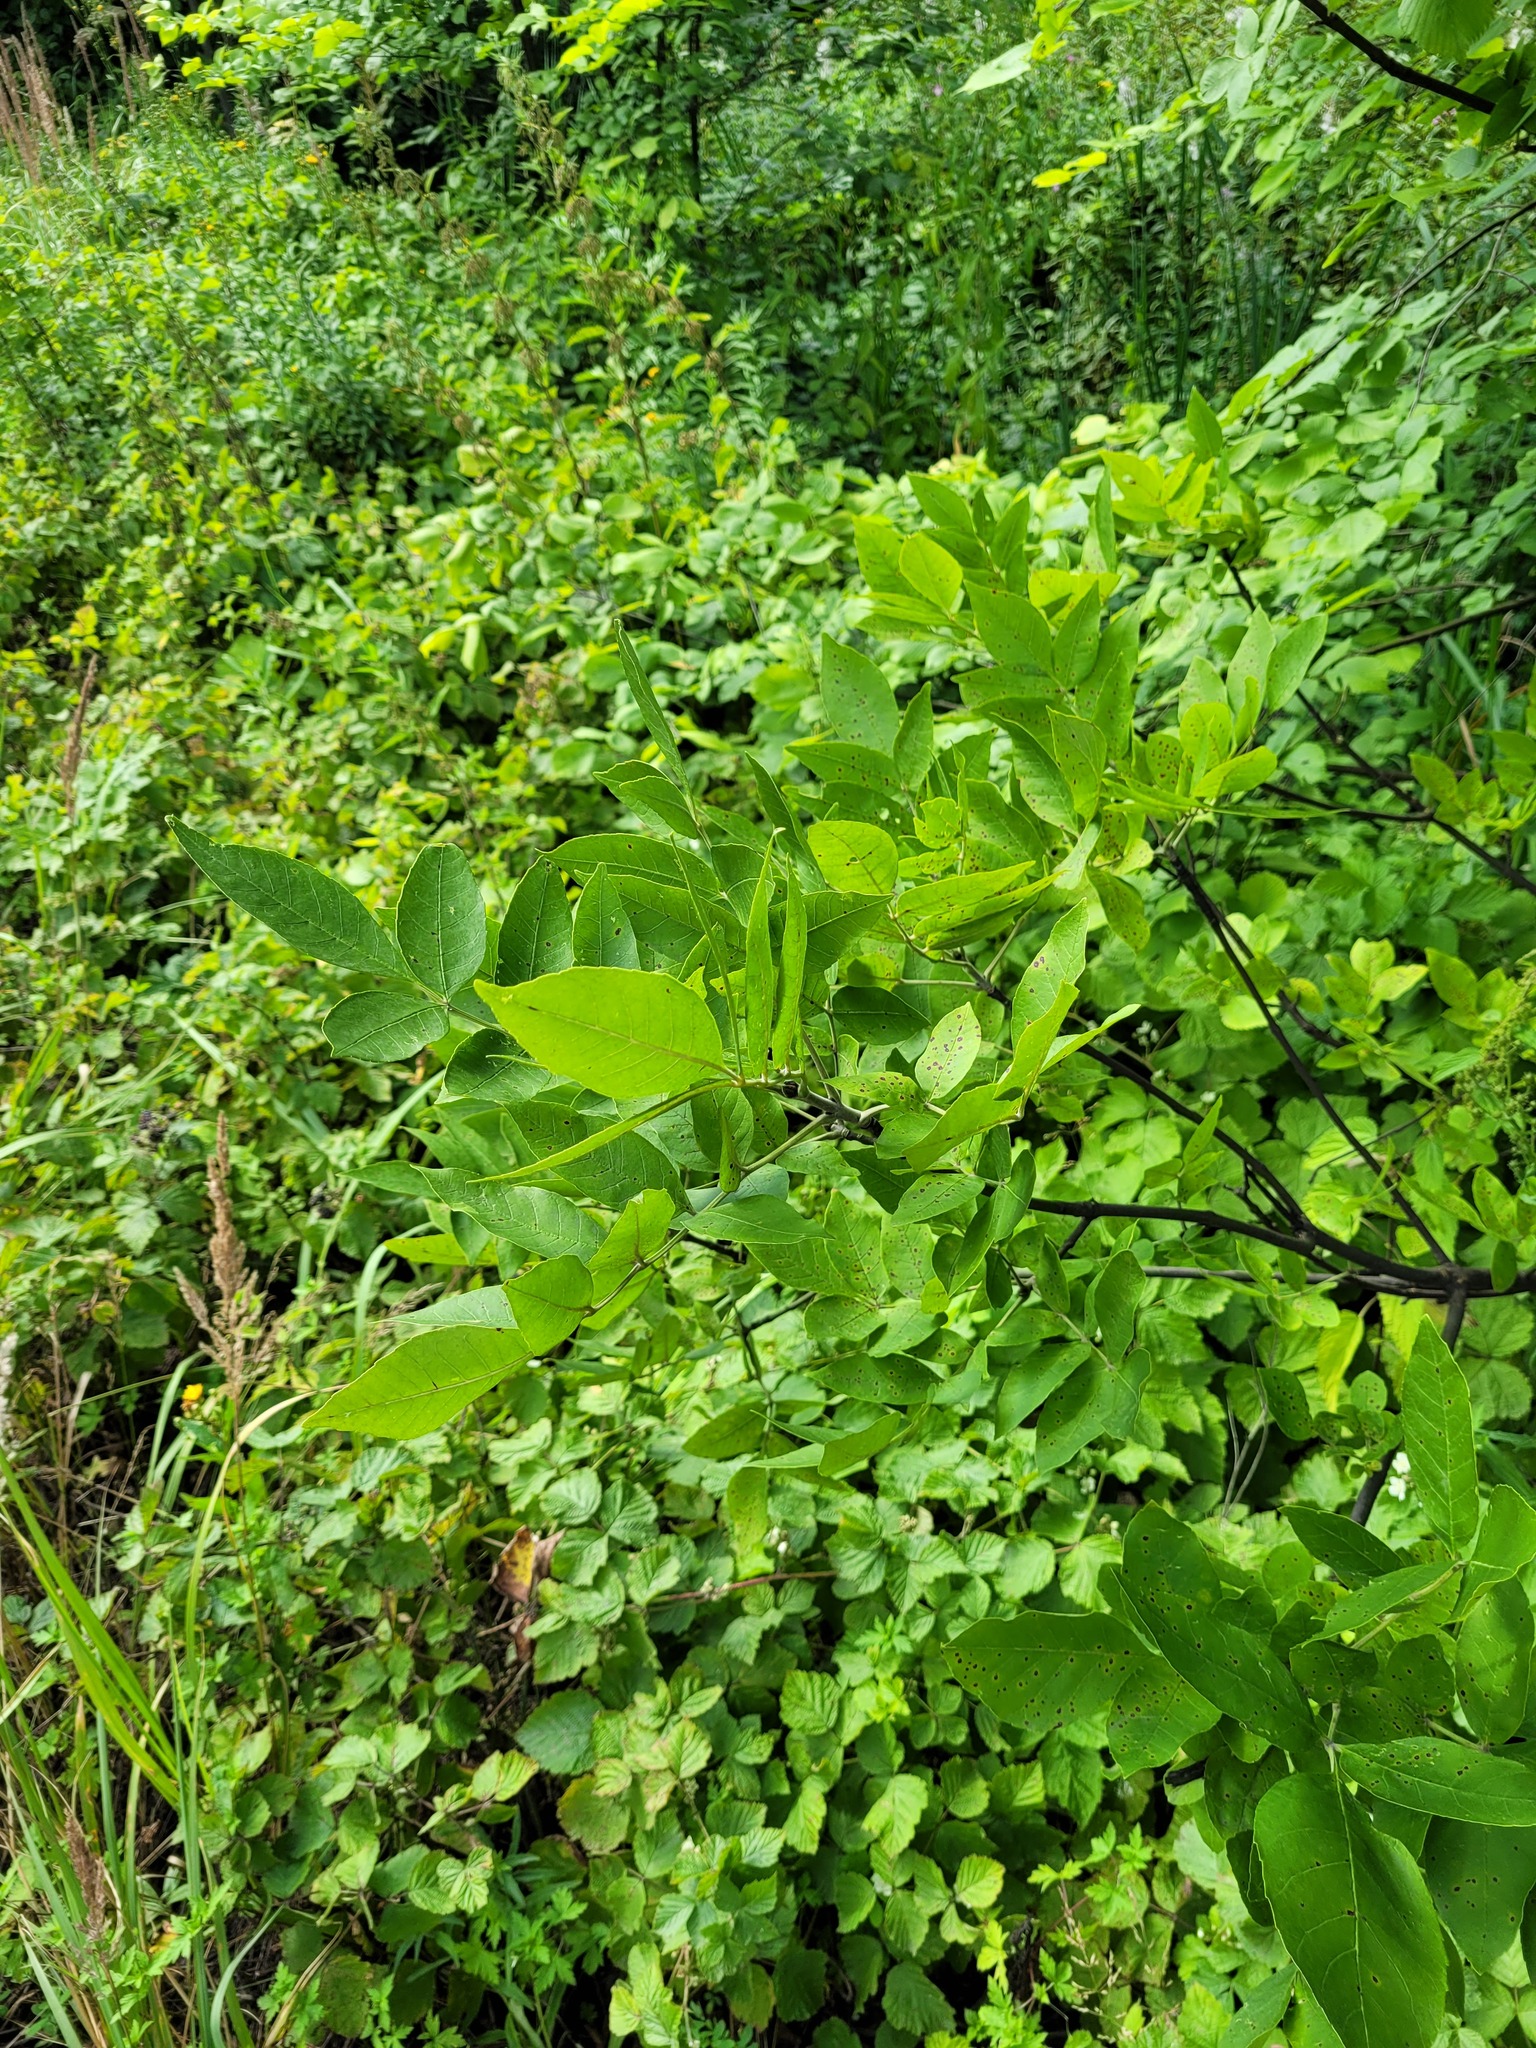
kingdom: Plantae
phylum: Tracheophyta
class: Magnoliopsida
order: Lamiales
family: Oleaceae
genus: Fraxinus
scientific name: Fraxinus pennsylvanica
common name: Green ash
